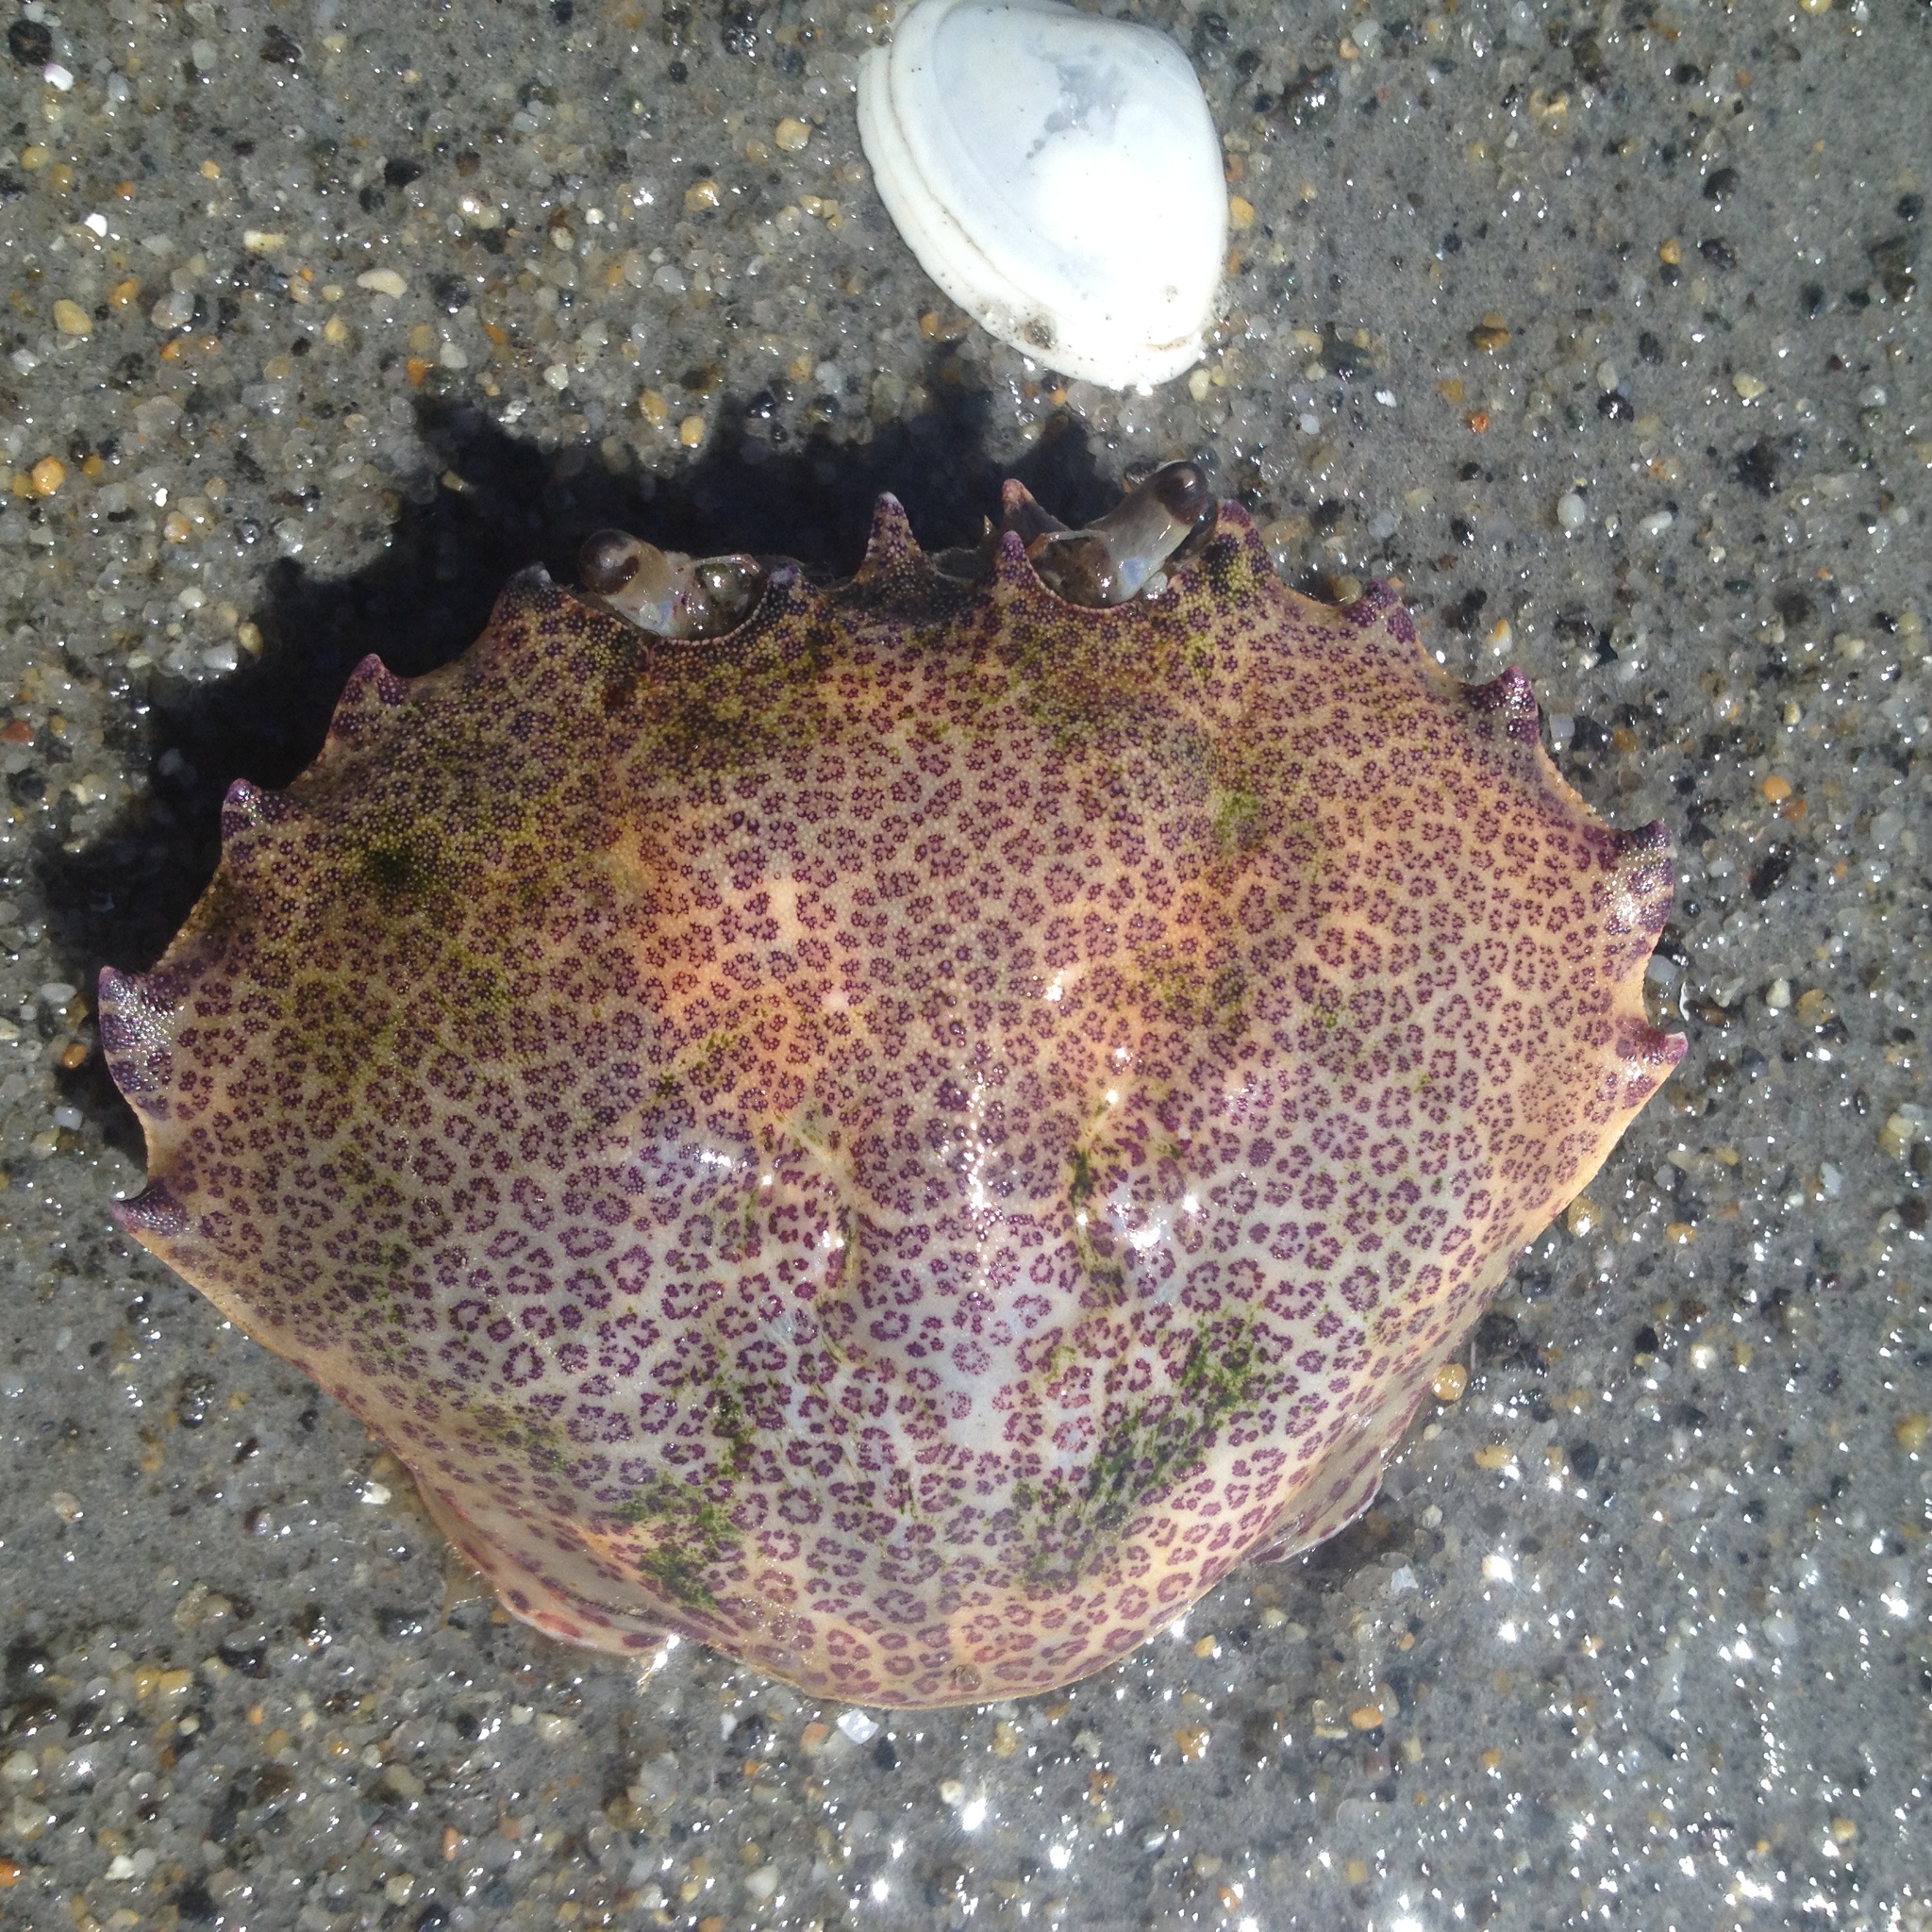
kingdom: Animalia
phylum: Arthropoda
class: Malacostraca
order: Decapoda
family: Ovalipidae
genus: Ovalipes
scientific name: Ovalipes ocellatus
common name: Lady crab
